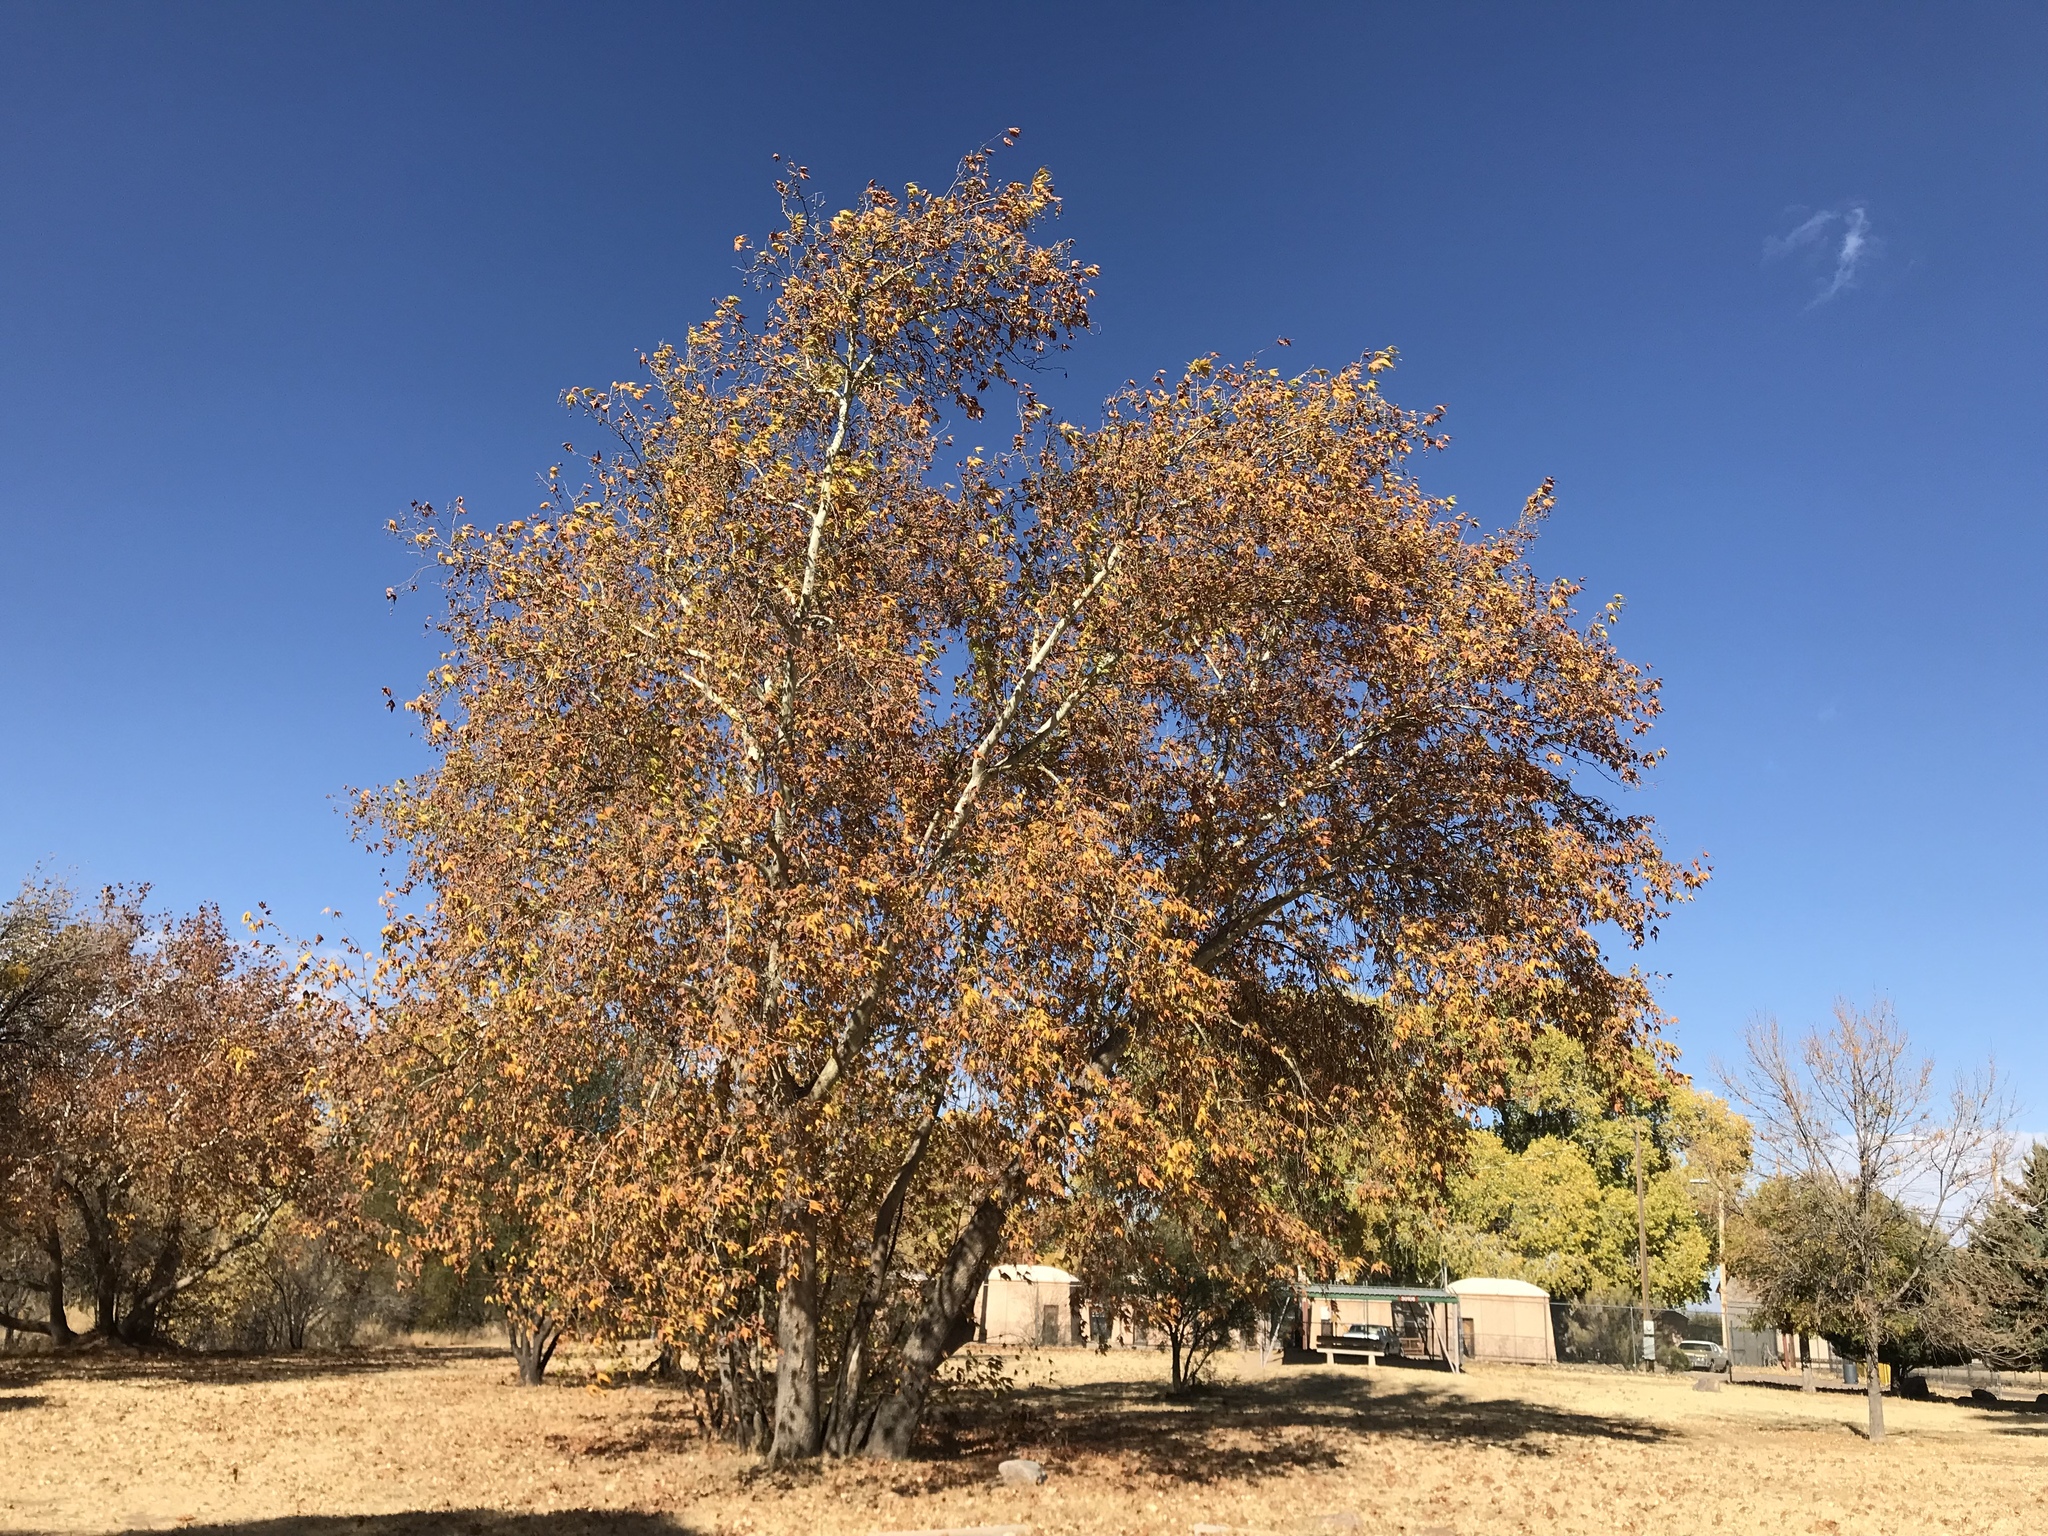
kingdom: Plantae
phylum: Tracheophyta
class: Magnoliopsida
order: Proteales
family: Platanaceae
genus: Platanus
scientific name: Platanus wrightii
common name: Arizona sycamore
